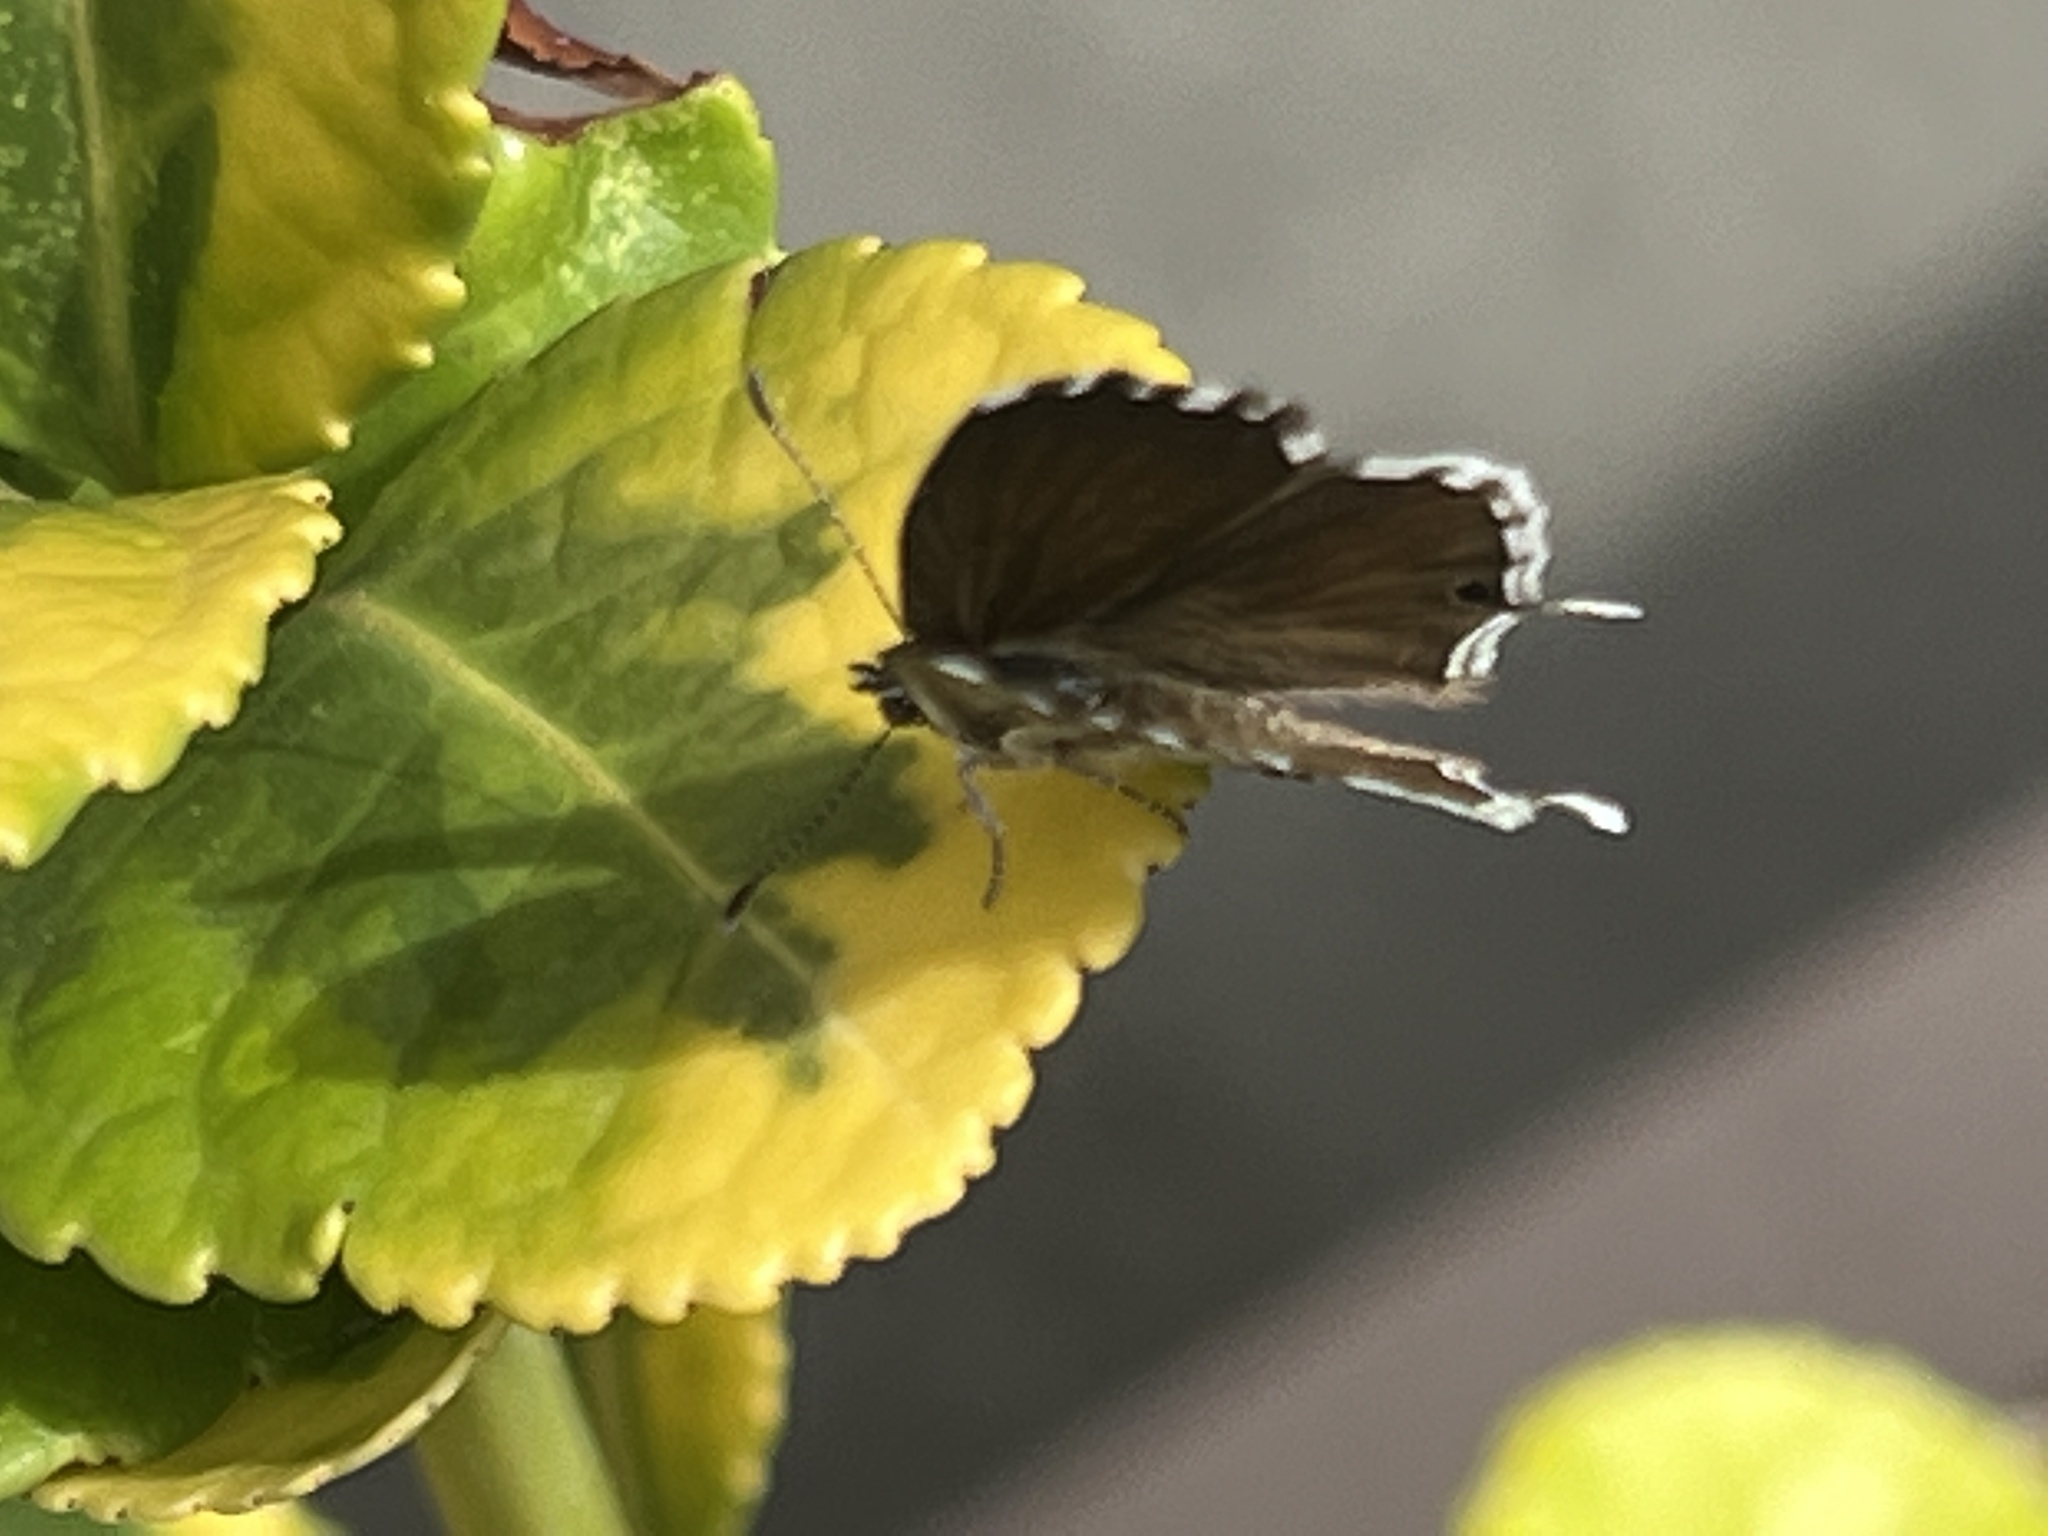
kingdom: Animalia
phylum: Arthropoda
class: Insecta
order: Lepidoptera
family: Lycaenidae
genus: Cacyreus
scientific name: Cacyreus marshalli
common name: Geranium bronze
